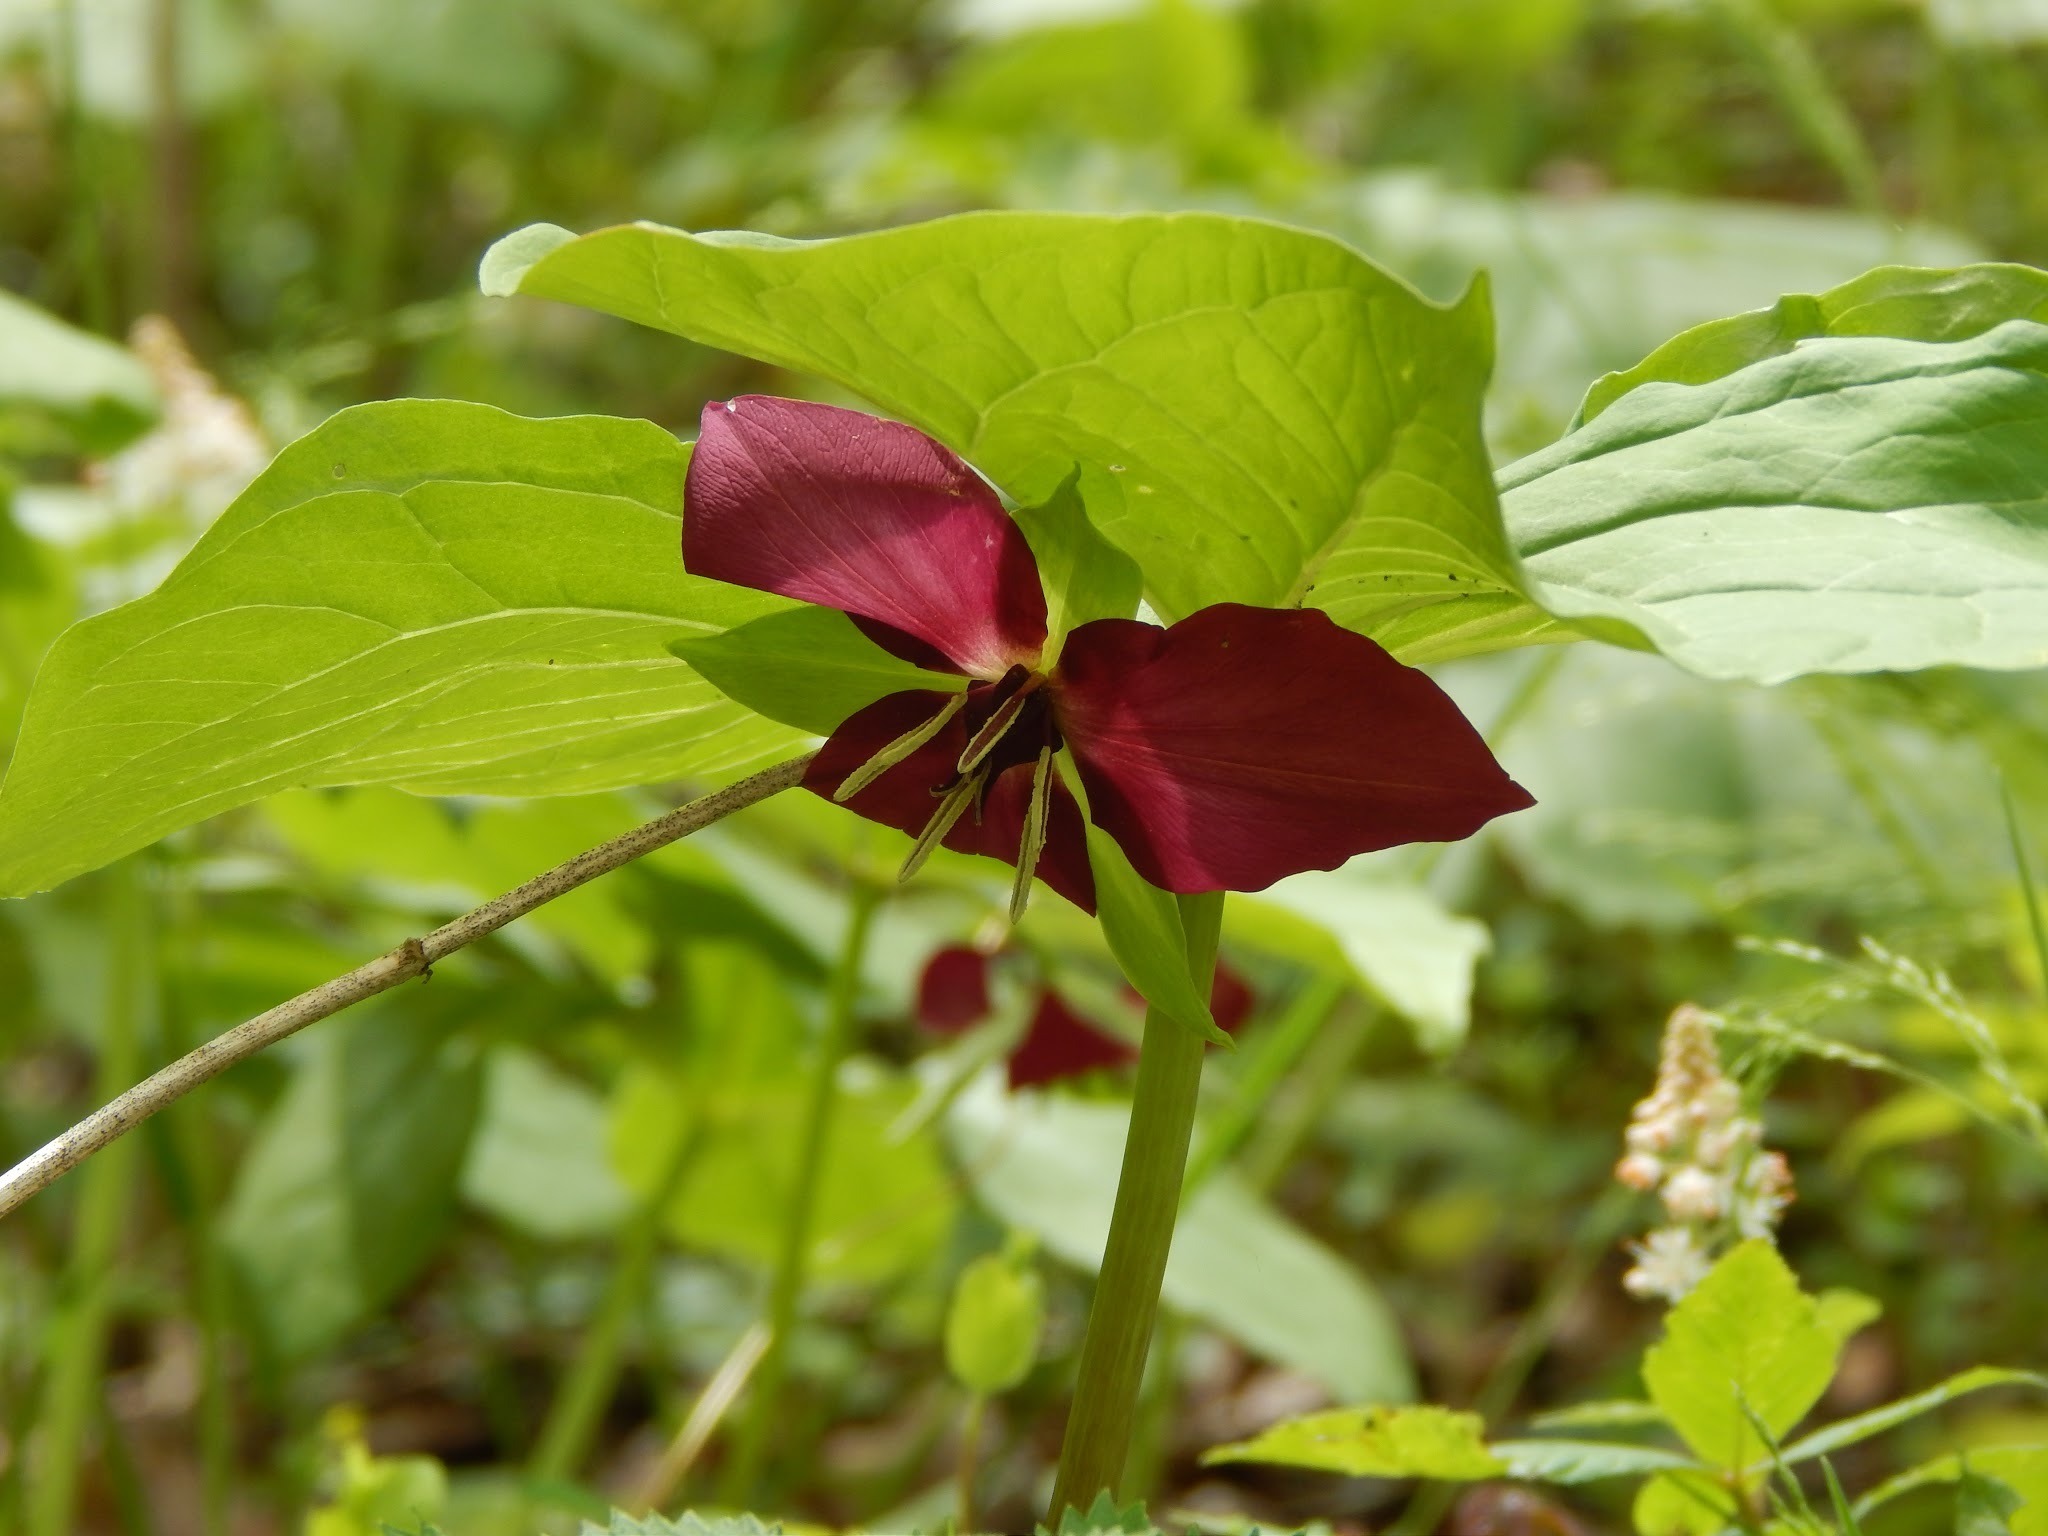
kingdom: Plantae
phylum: Tracheophyta
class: Liliopsida
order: Liliales
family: Melanthiaceae
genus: Trillium
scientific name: Trillium vaseyi
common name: Sweet trillium
